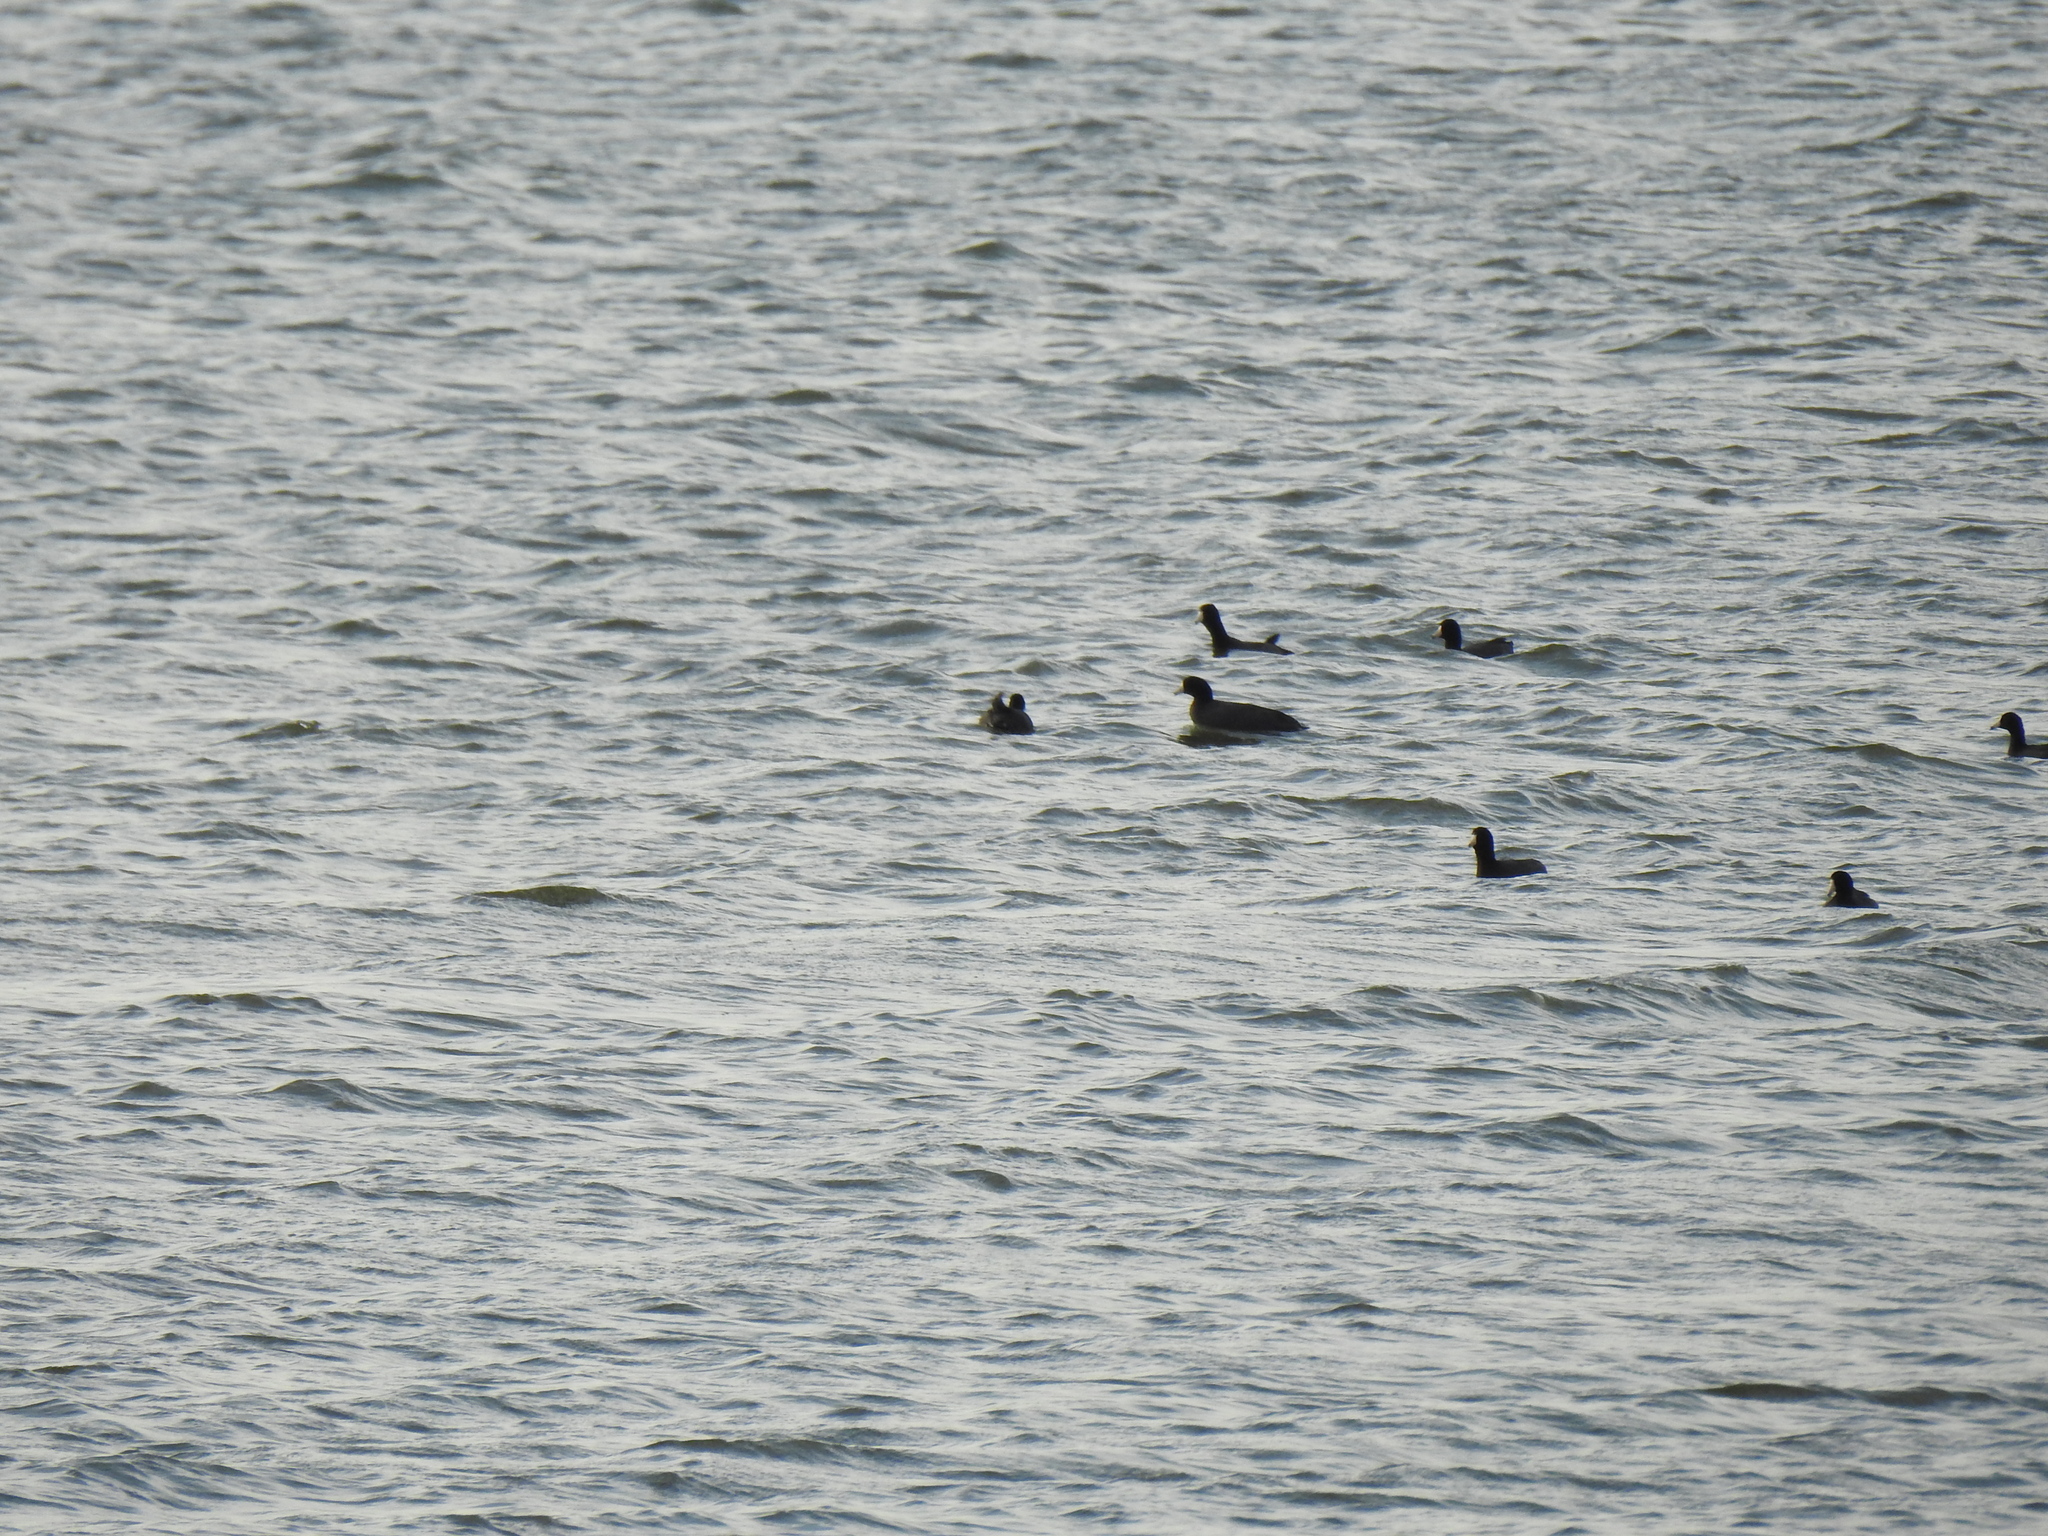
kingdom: Animalia
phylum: Chordata
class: Aves
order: Gruiformes
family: Rallidae
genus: Fulica
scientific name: Fulica americana
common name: American coot
